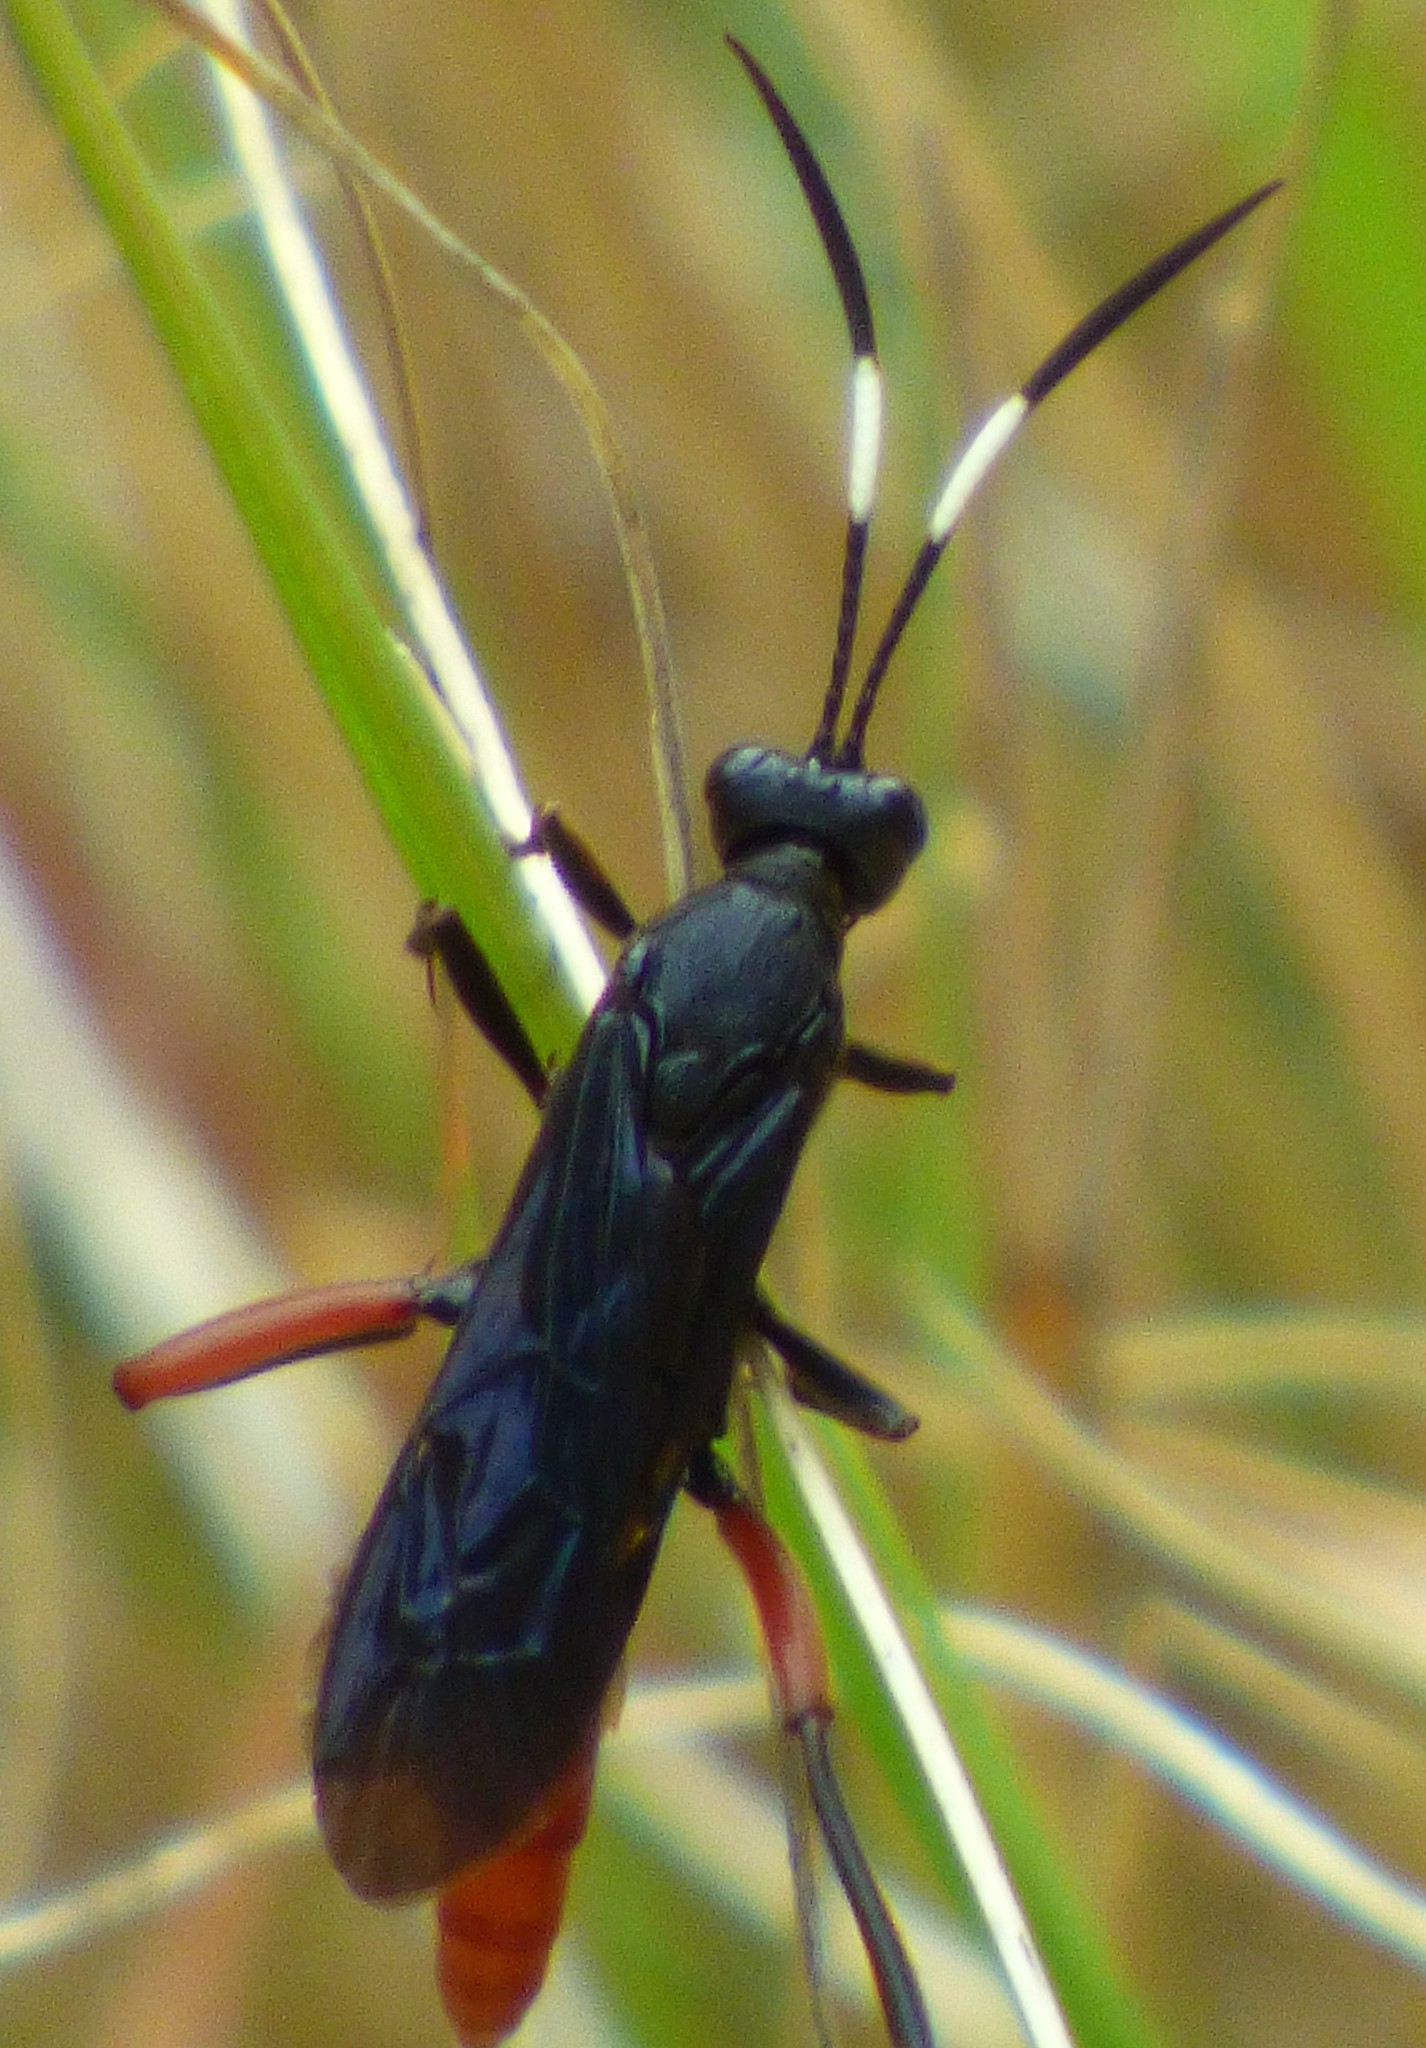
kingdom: Animalia
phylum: Arthropoda
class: Insecta
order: Hymenoptera
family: Ichneumonidae
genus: Limonethe
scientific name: Limonethe maurator
